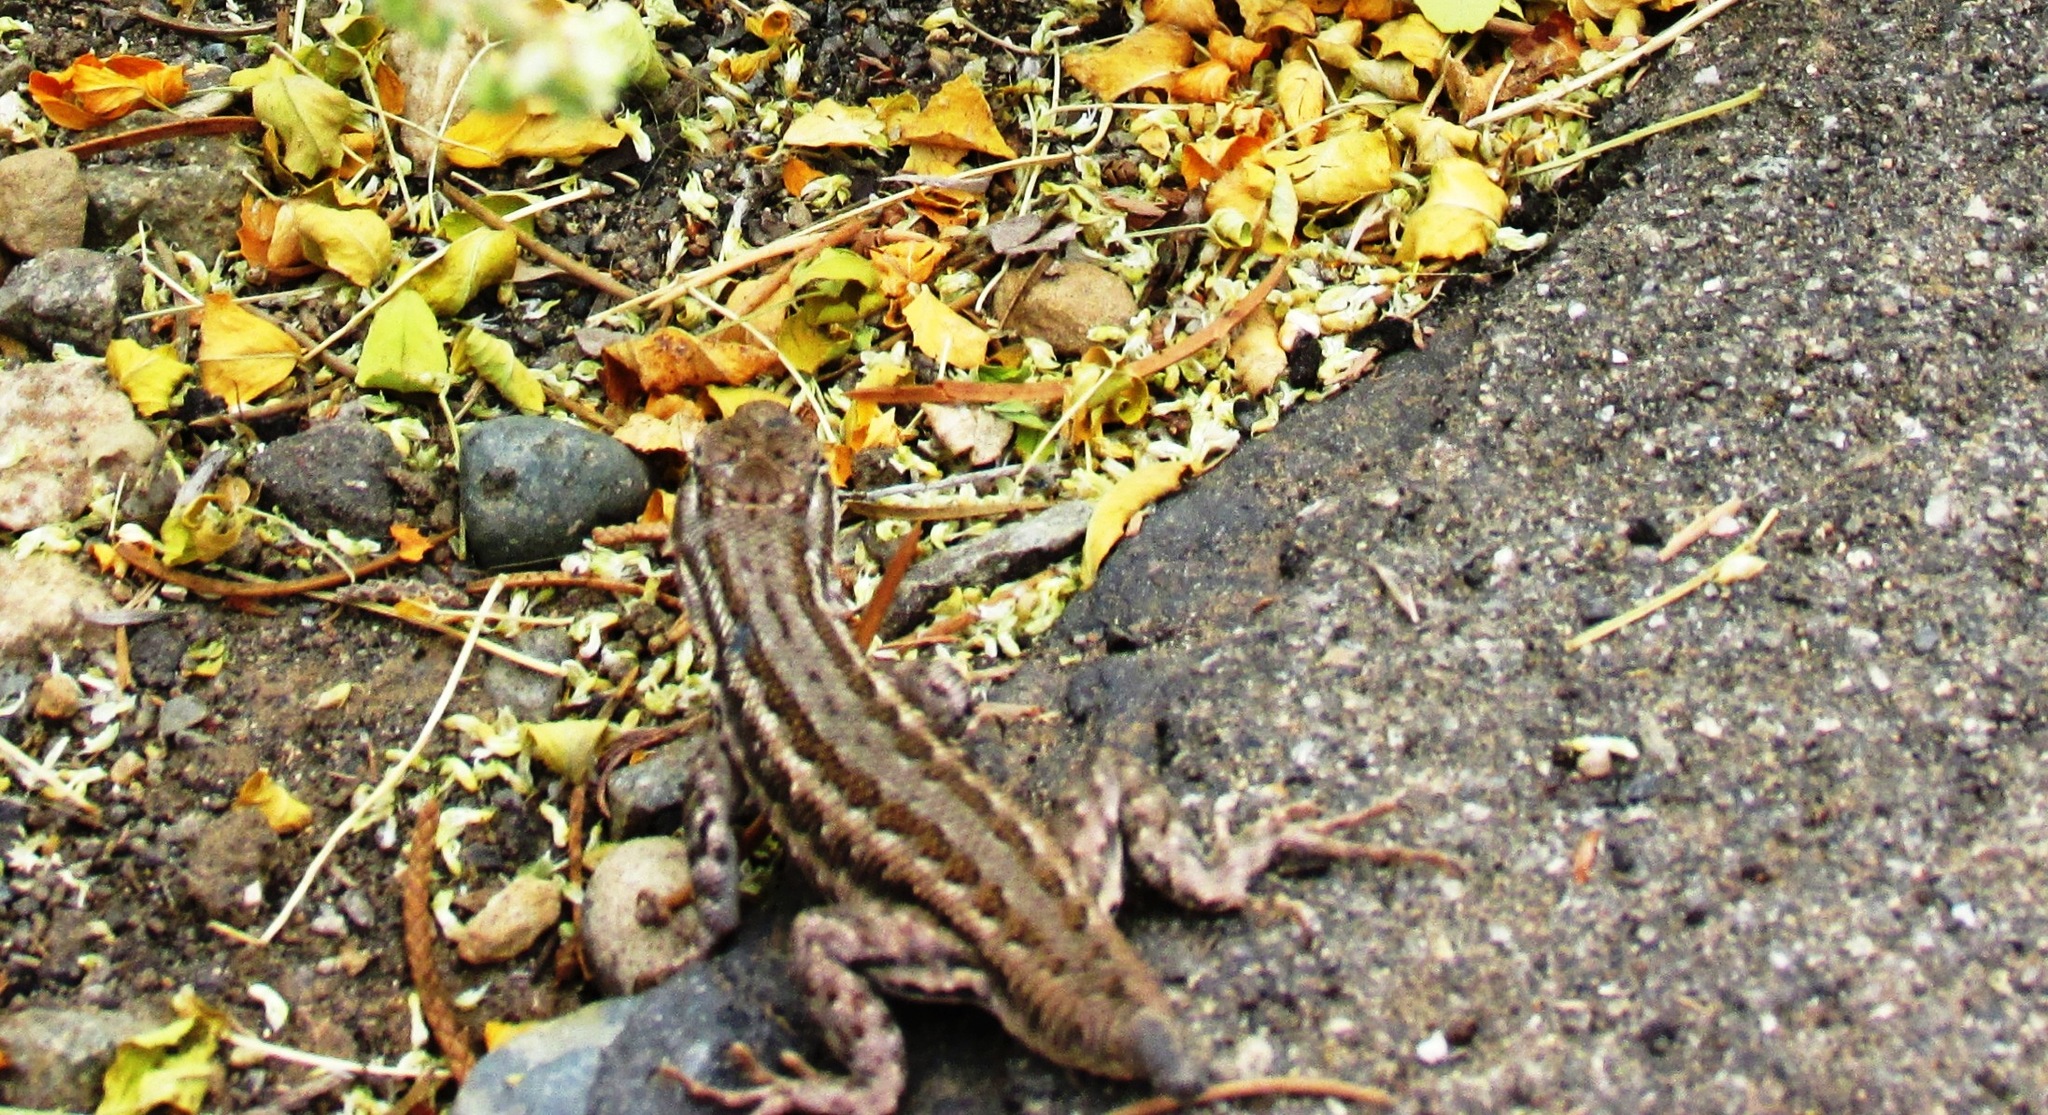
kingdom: Animalia
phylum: Chordata
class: Squamata
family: Phrynosomatidae
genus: Sceloporus
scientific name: Sceloporus graciosus
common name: Sagebrush lizard
